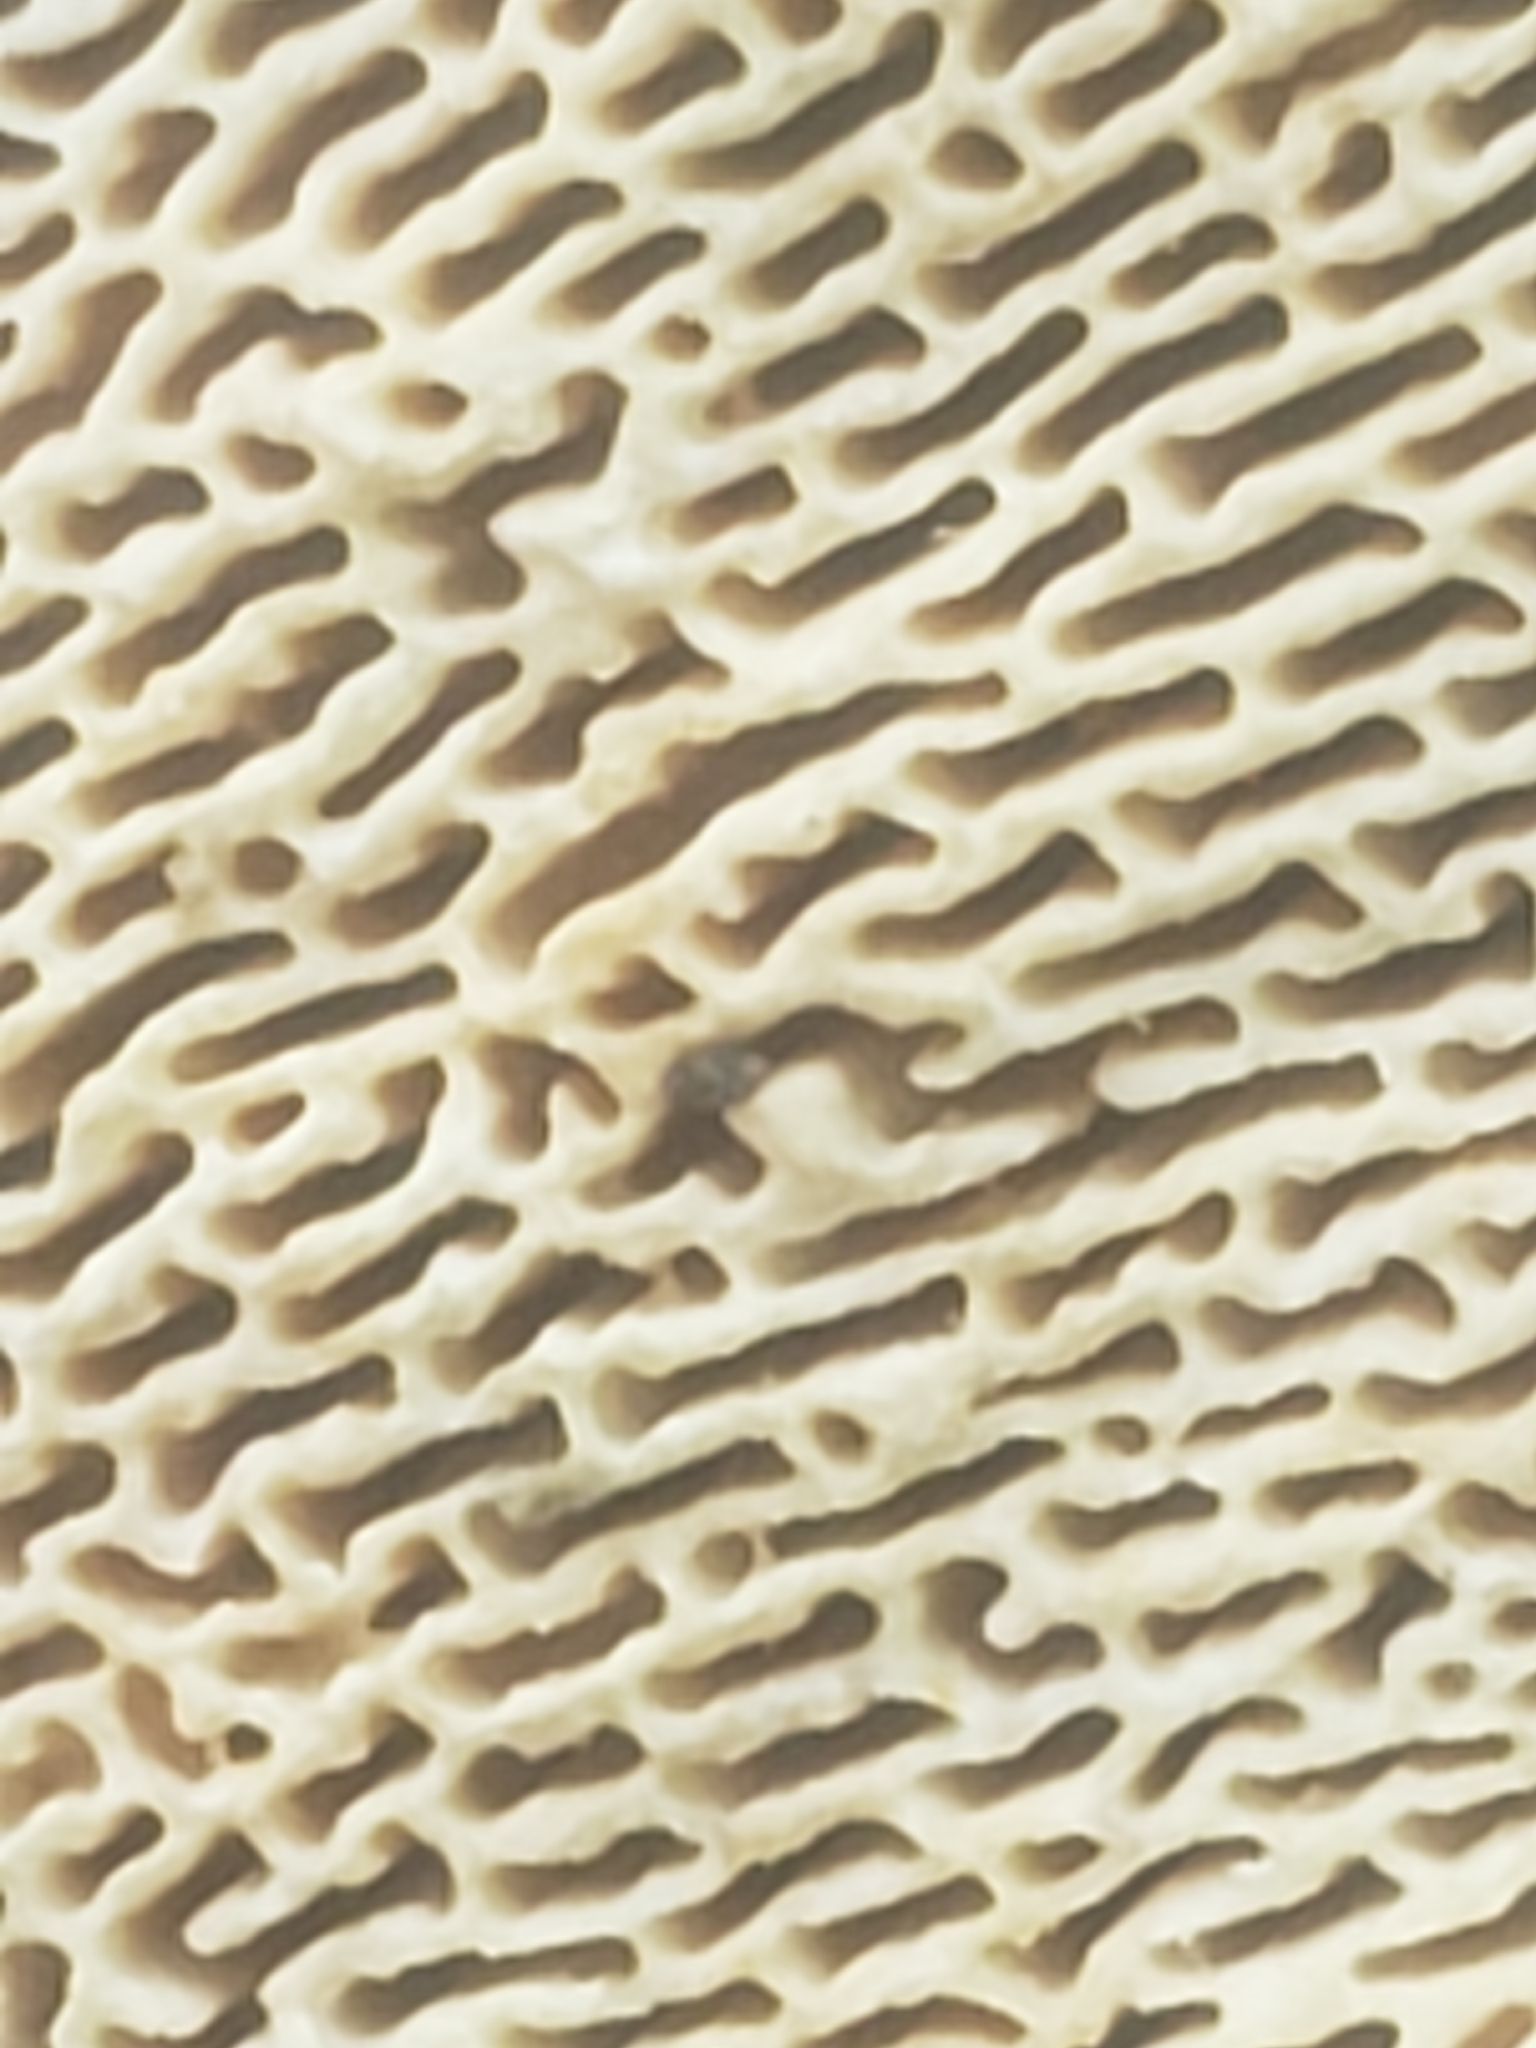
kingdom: Fungi
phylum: Basidiomycota
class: Agaricomycetes
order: Polyporales
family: Polyporaceae
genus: Daedaleopsis
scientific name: Daedaleopsis confragosa
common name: Blushing bracket
